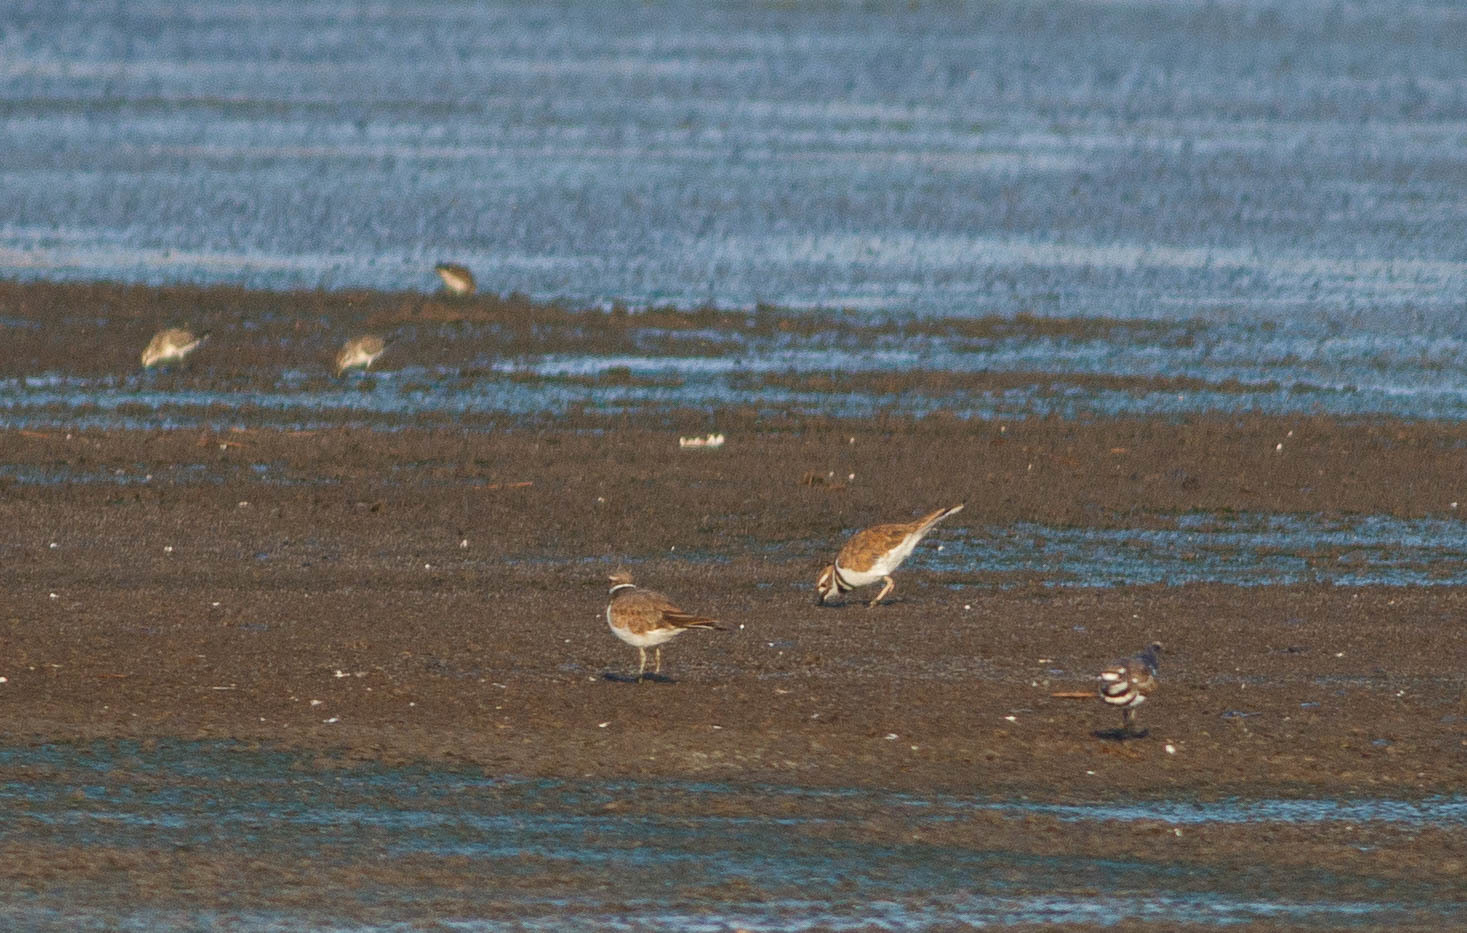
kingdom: Animalia
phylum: Chordata
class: Aves
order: Charadriiformes
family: Charadriidae
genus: Charadrius
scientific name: Charadrius vociferus
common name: Killdeer
